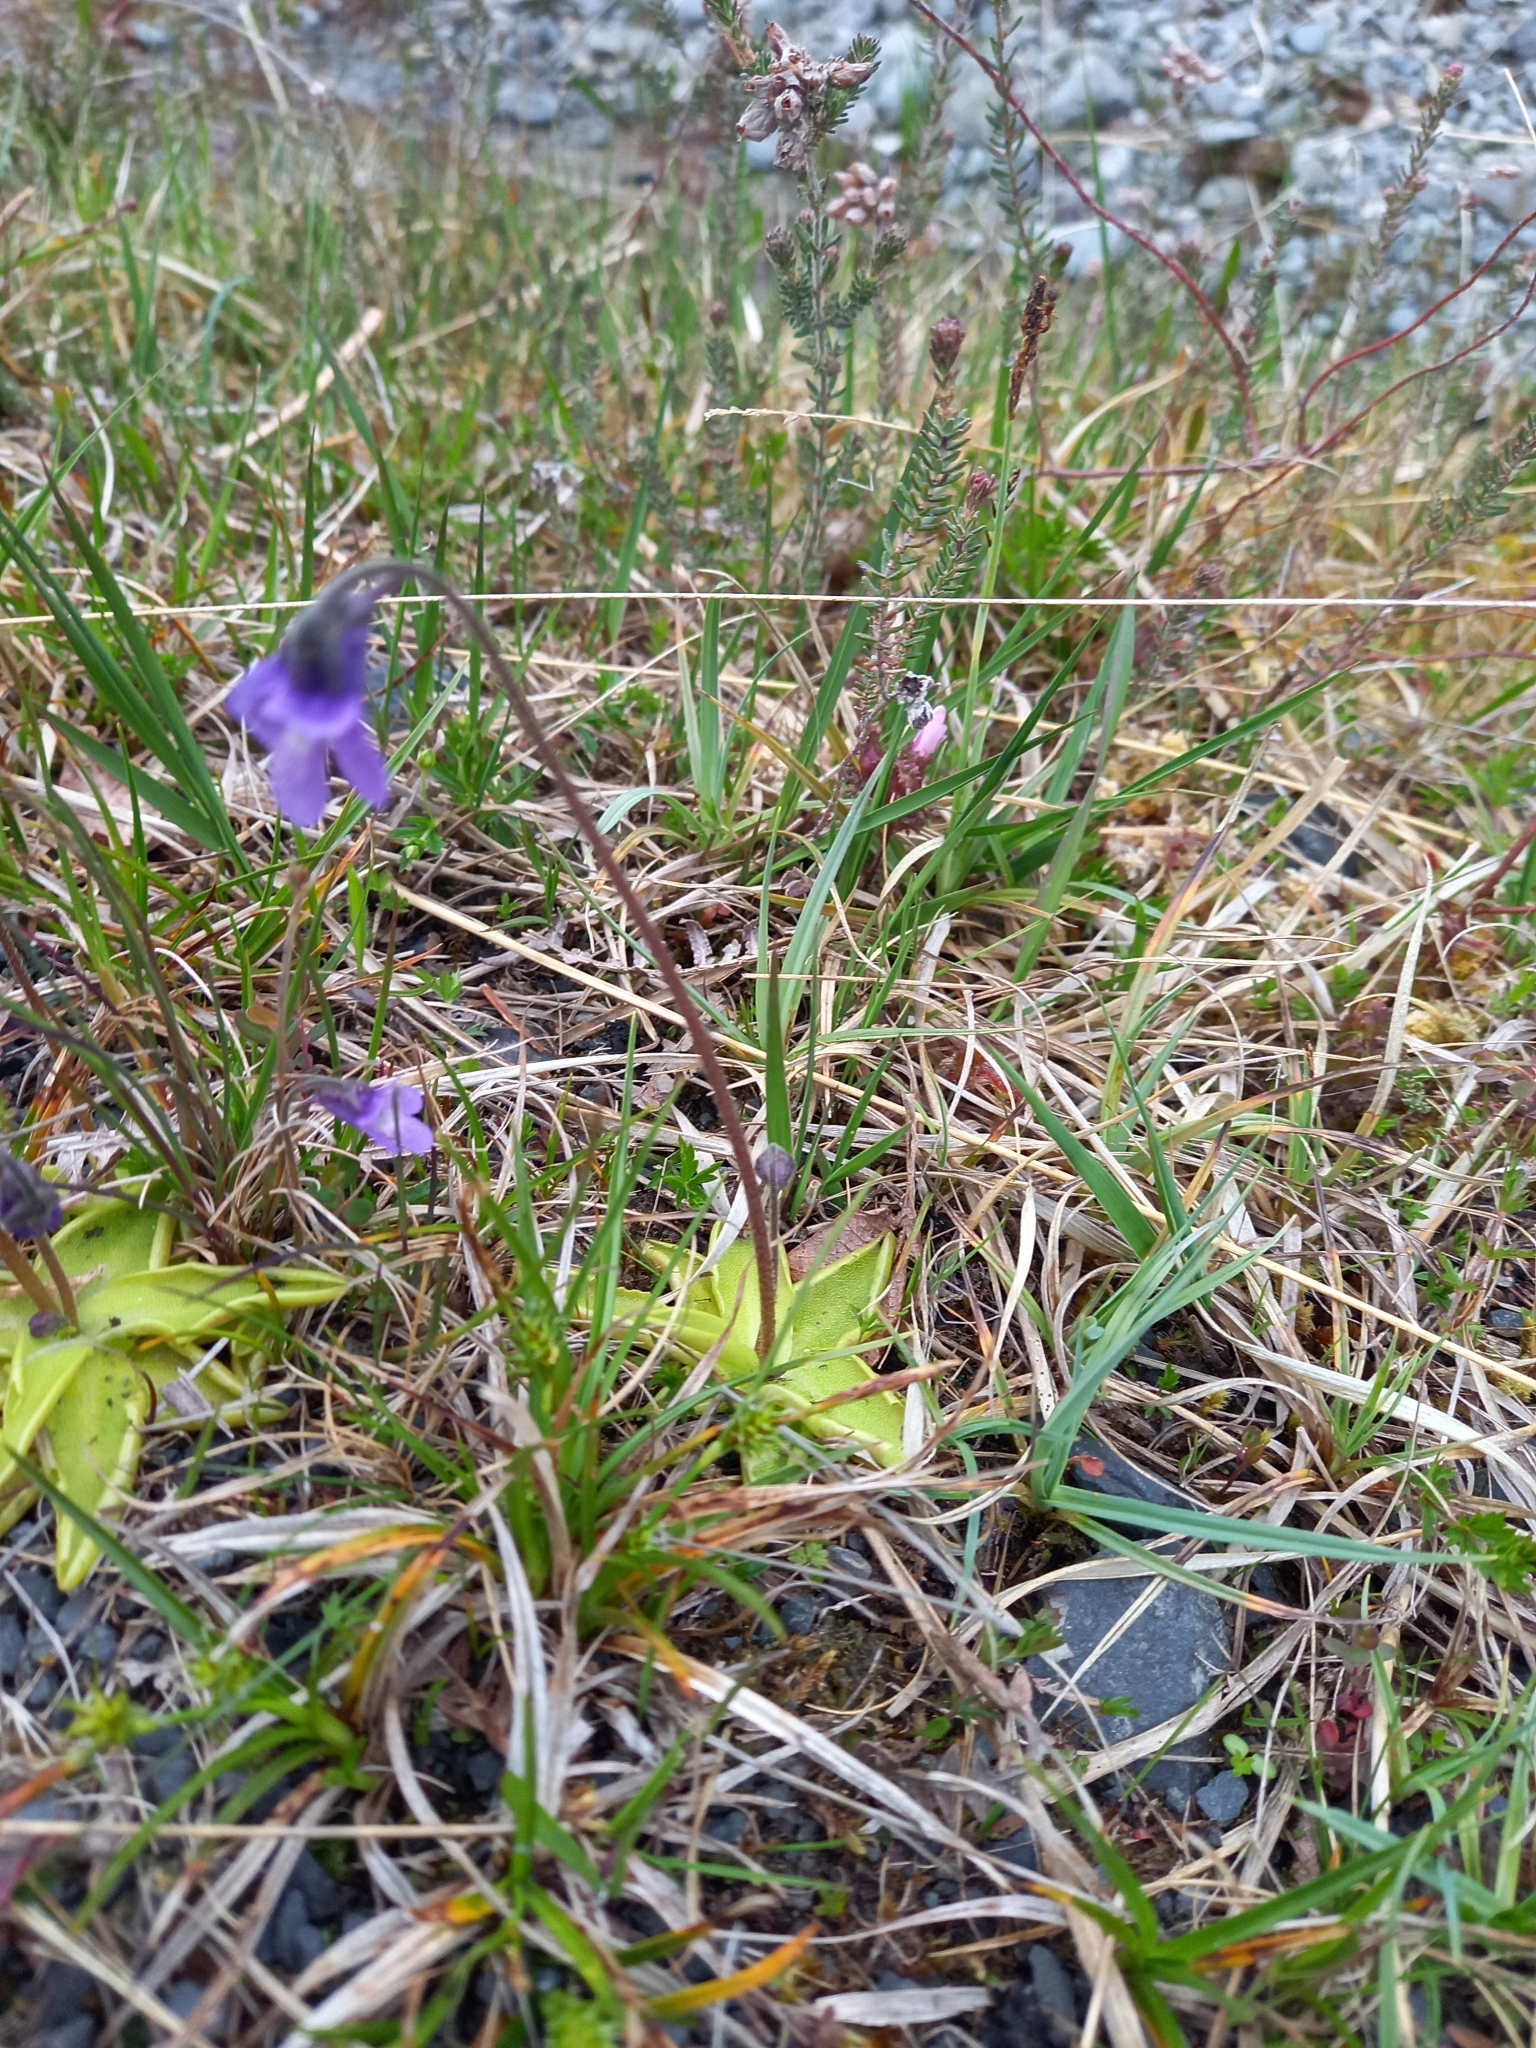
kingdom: Plantae
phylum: Tracheophyta
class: Magnoliopsida
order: Lamiales
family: Lentibulariaceae
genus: Pinguicula
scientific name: Pinguicula vulgaris
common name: Common butterwort
